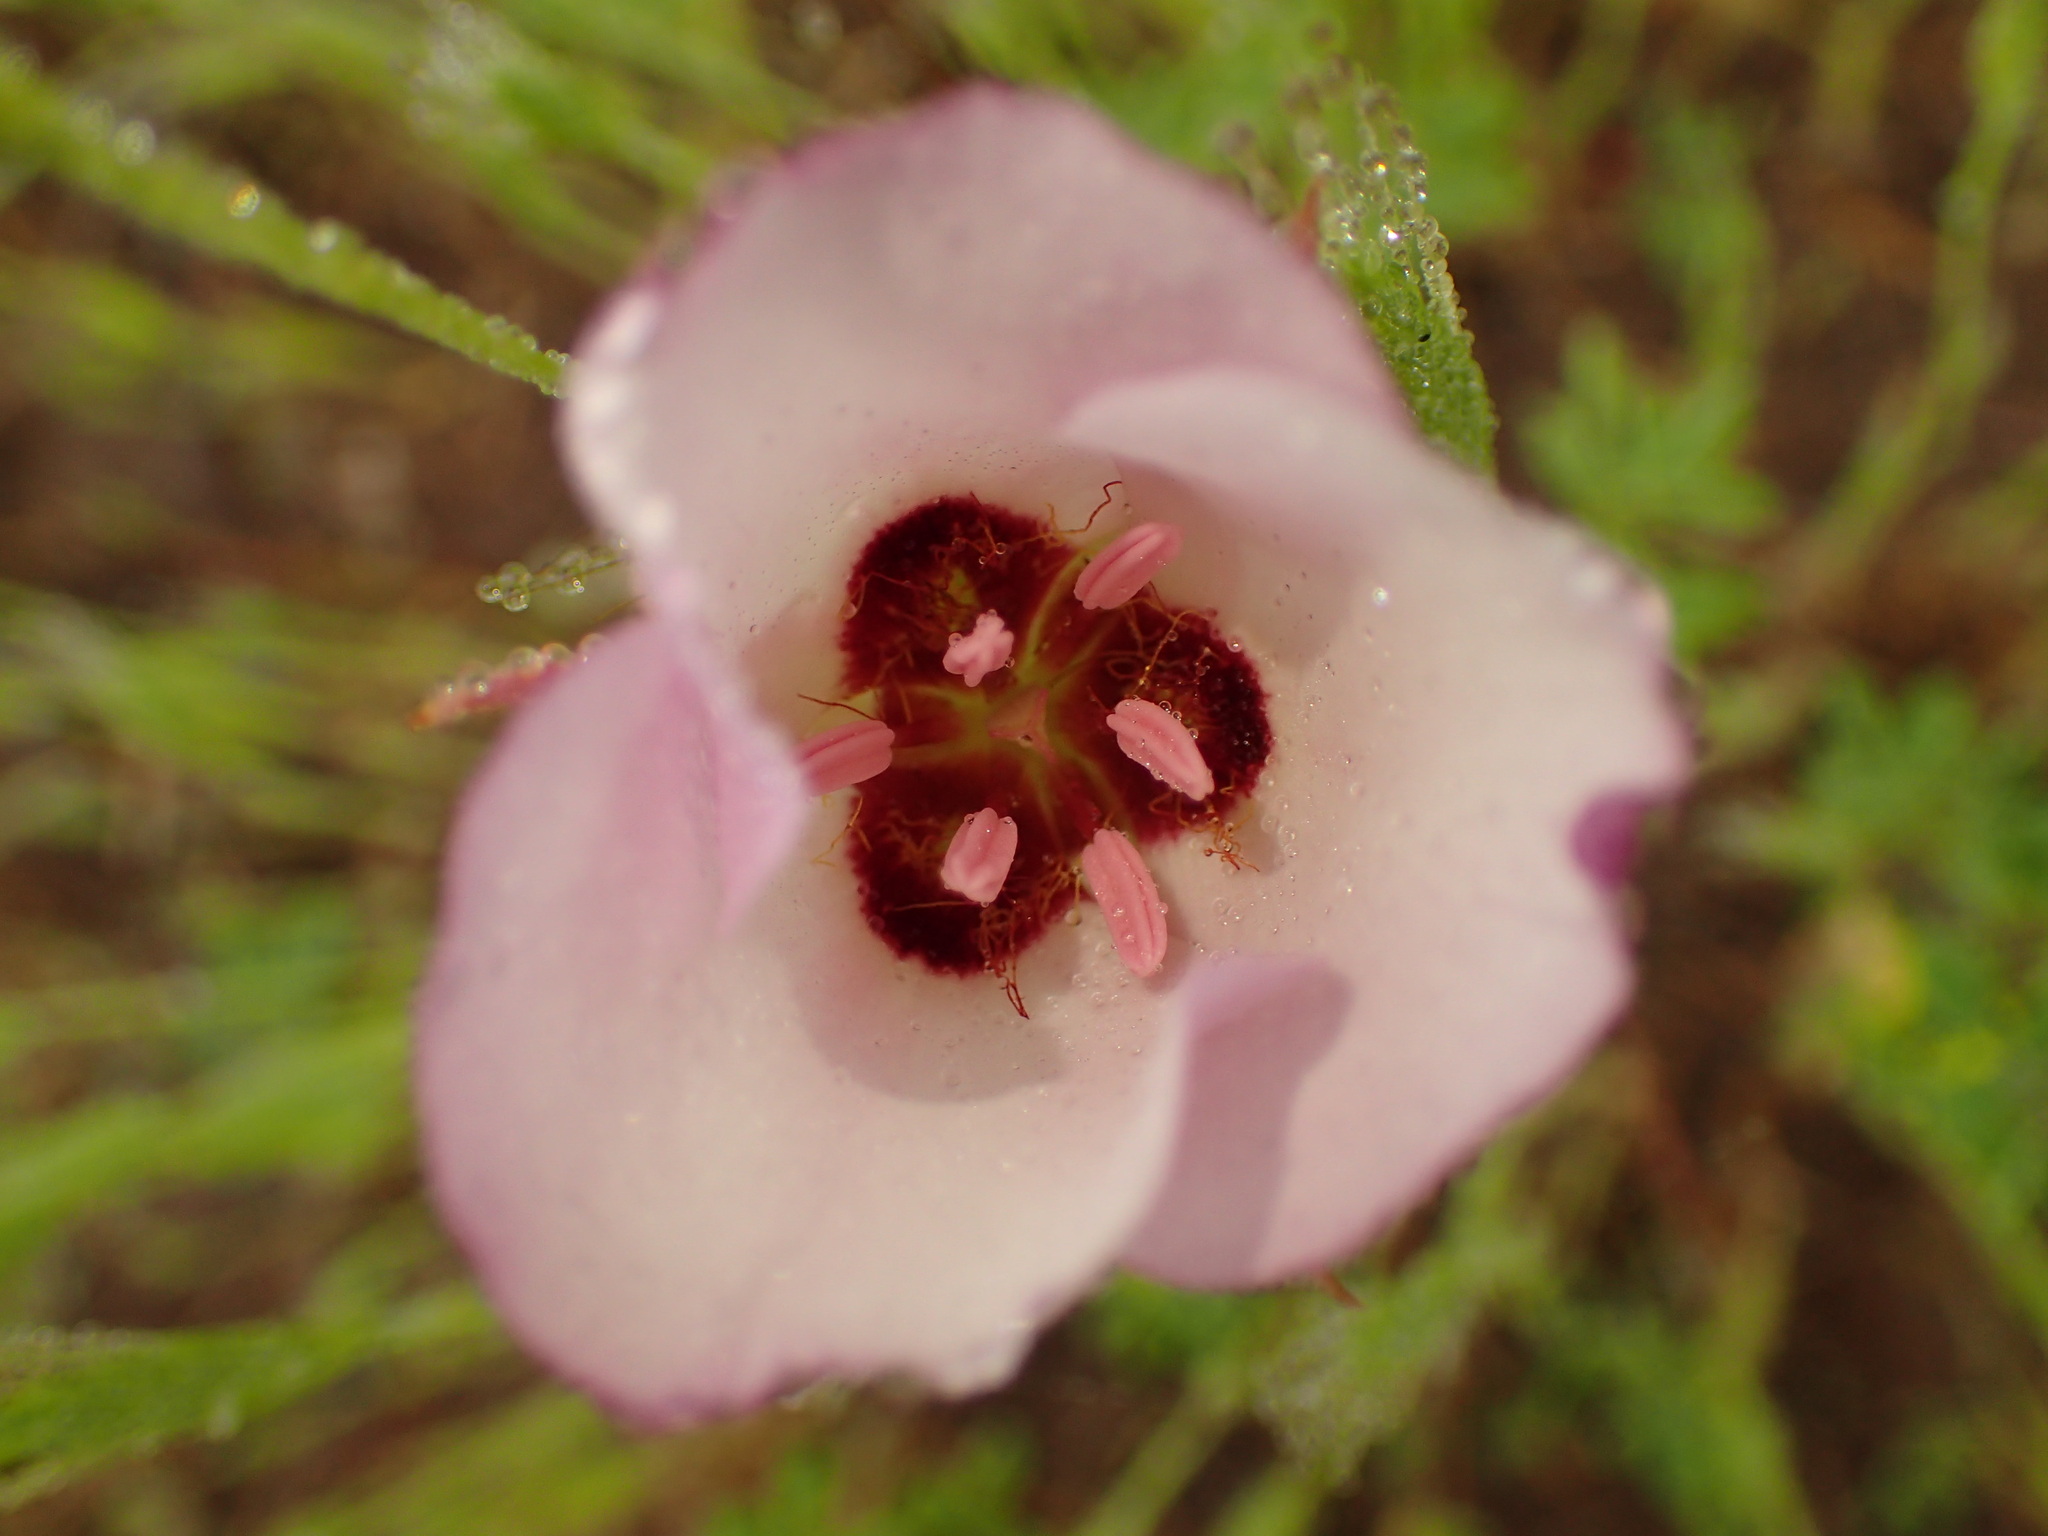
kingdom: Plantae
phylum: Tracheophyta
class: Liliopsida
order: Liliales
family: Liliaceae
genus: Calochortus
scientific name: Calochortus catalinae
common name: Catalina mariposa-lily
